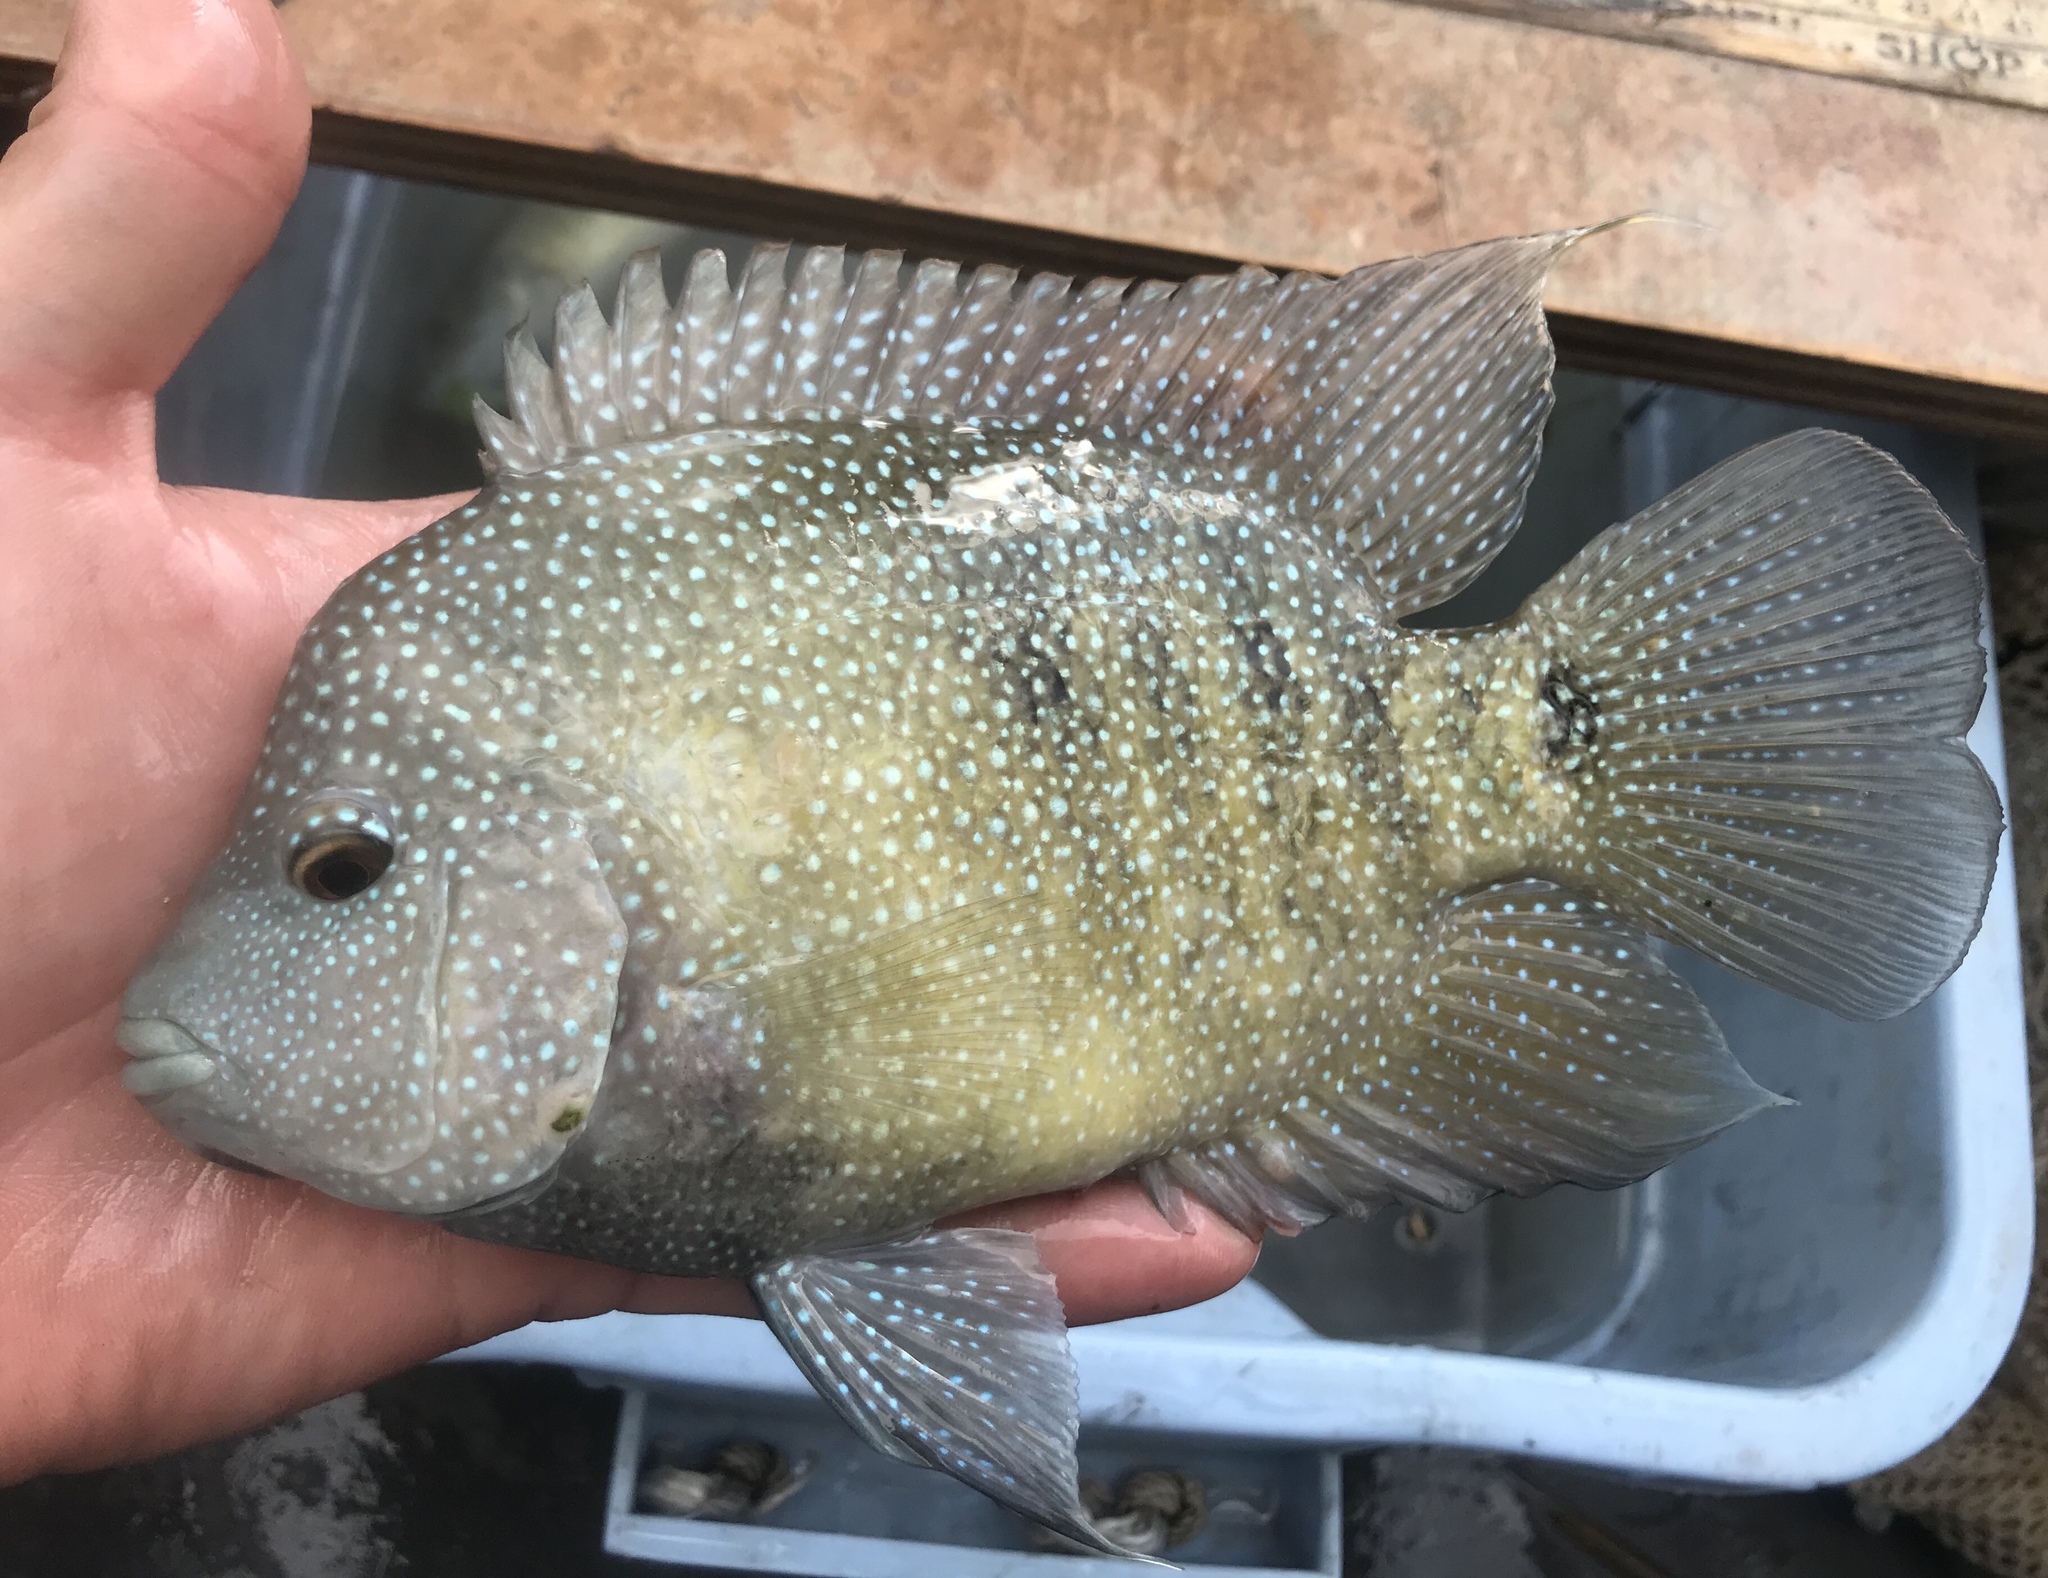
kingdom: Animalia
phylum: Chordata
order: Perciformes
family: Cichlidae
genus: Herichthys
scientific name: Herichthys cyanoguttatus
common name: Rio grande cichlid
